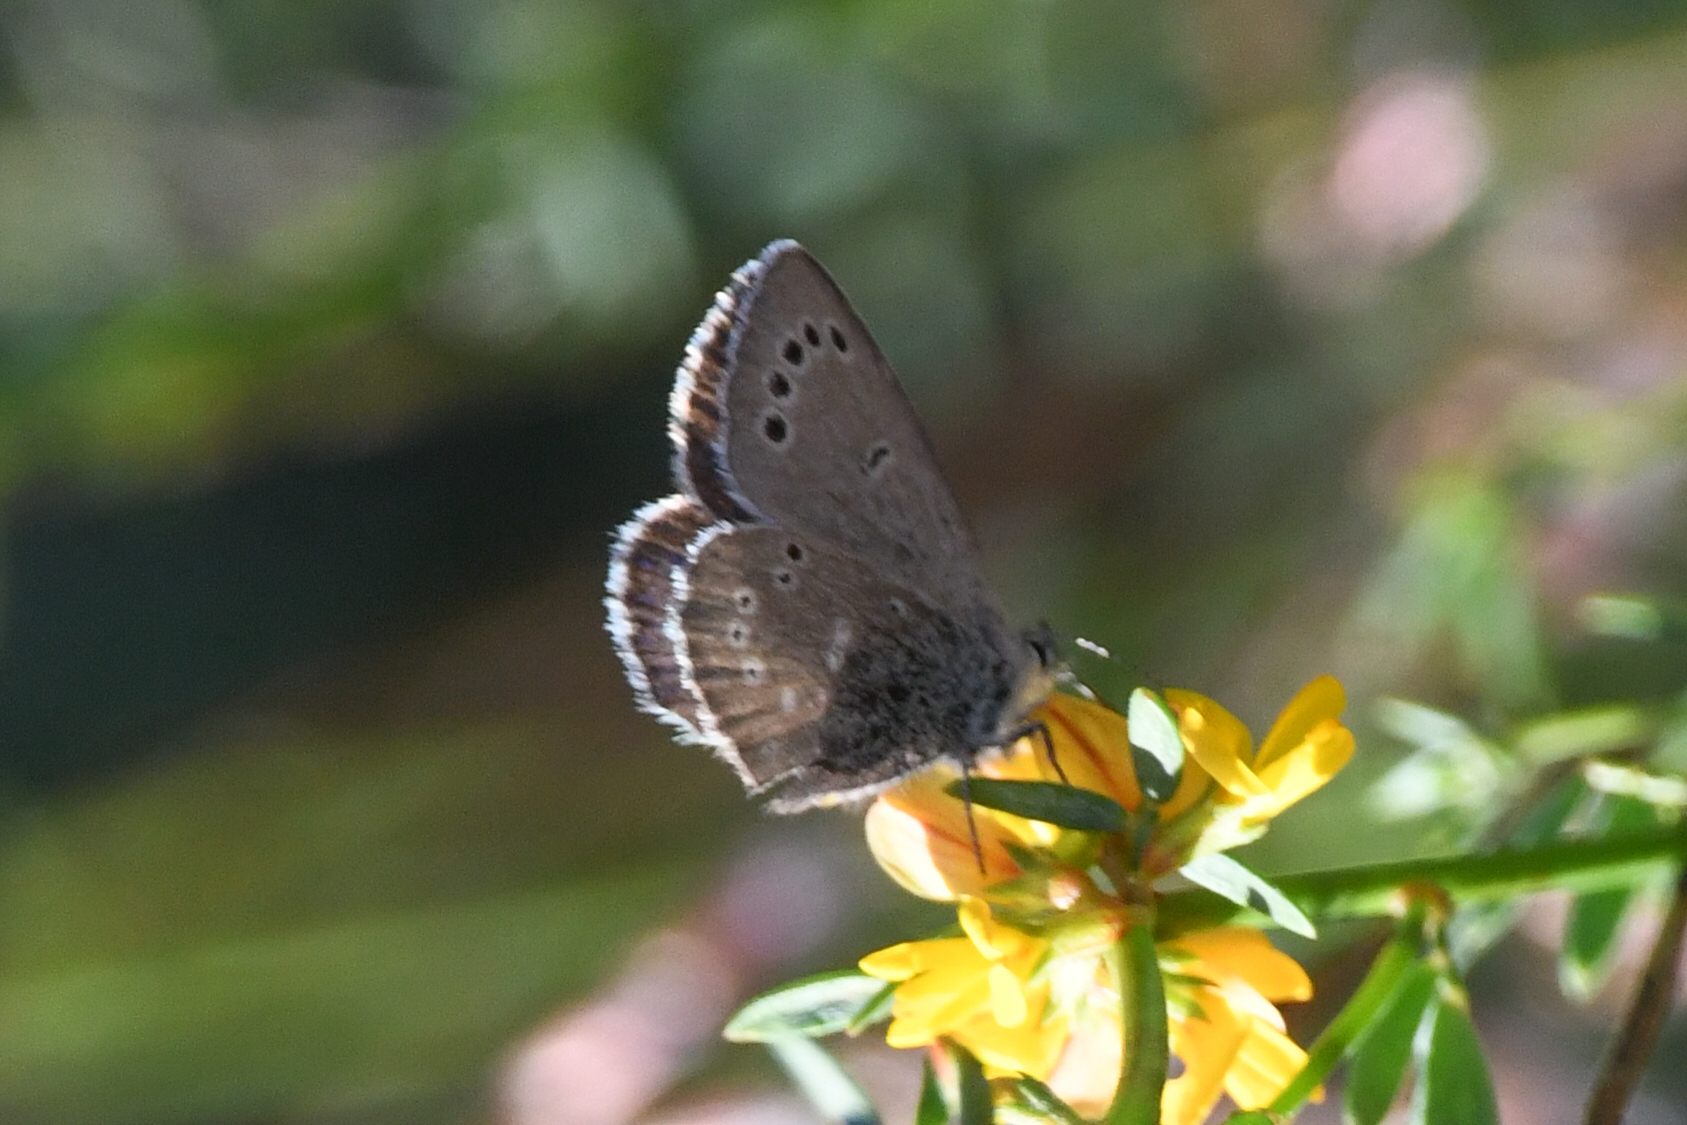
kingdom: Animalia
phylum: Arthropoda
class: Insecta
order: Lepidoptera
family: Lycaenidae
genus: Glaucopsyche
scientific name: Glaucopsyche lygdamus
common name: Silvery blue
